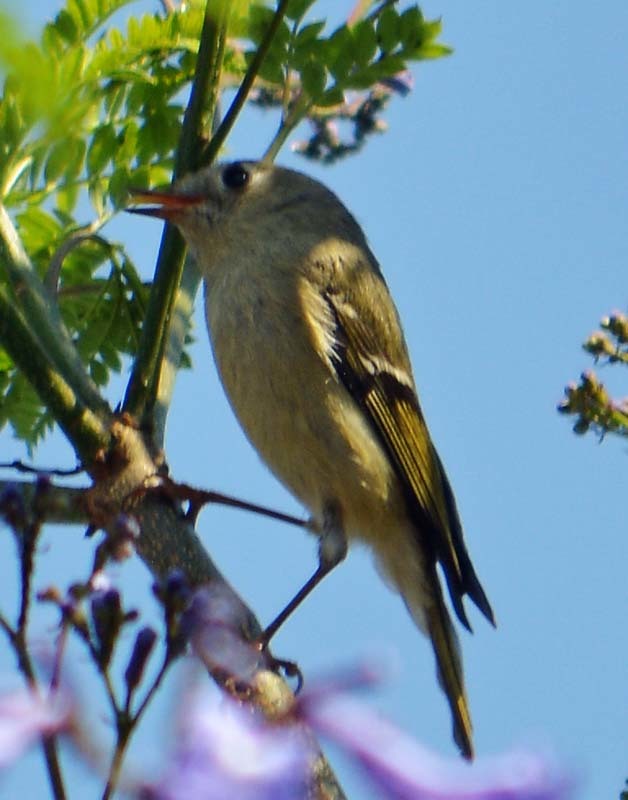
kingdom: Animalia
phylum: Chordata
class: Aves
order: Passeriformes
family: Regulidae
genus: Regulus
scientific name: Regulus calendula
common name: Ruby-crowned kinglet
